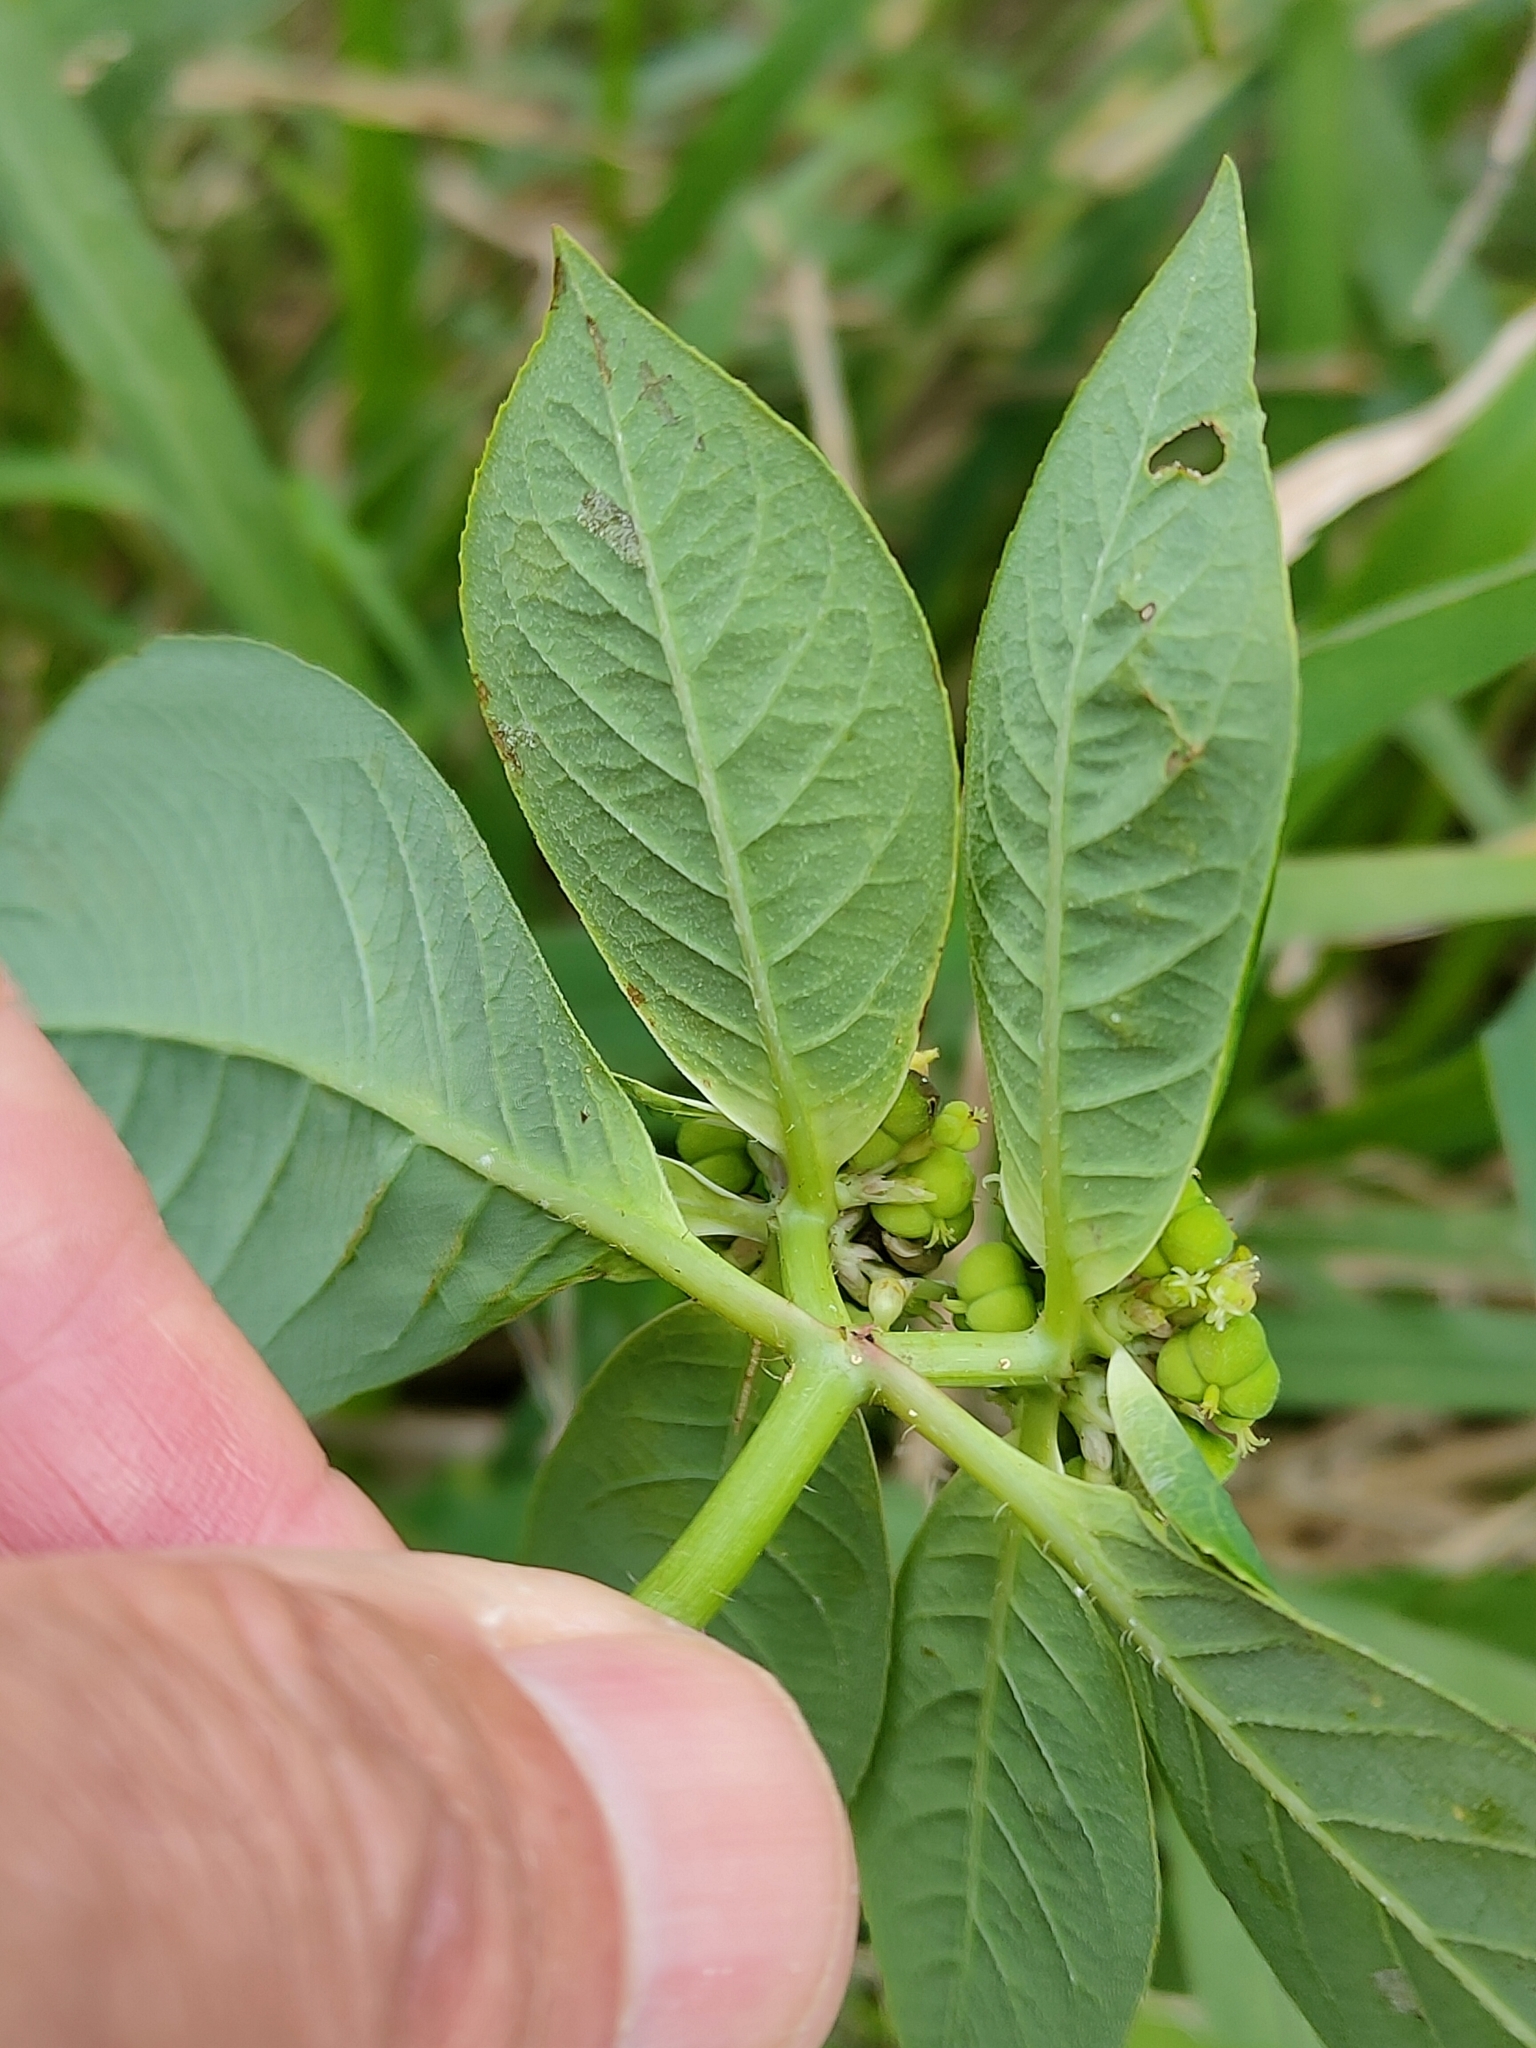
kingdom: Plantae
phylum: Tracheophyta
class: Magnoliopsida
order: Malpighiales
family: Euphorbiaceae
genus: Euphorbia
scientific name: Euphorbia heterophylla
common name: Mexican fireplant
